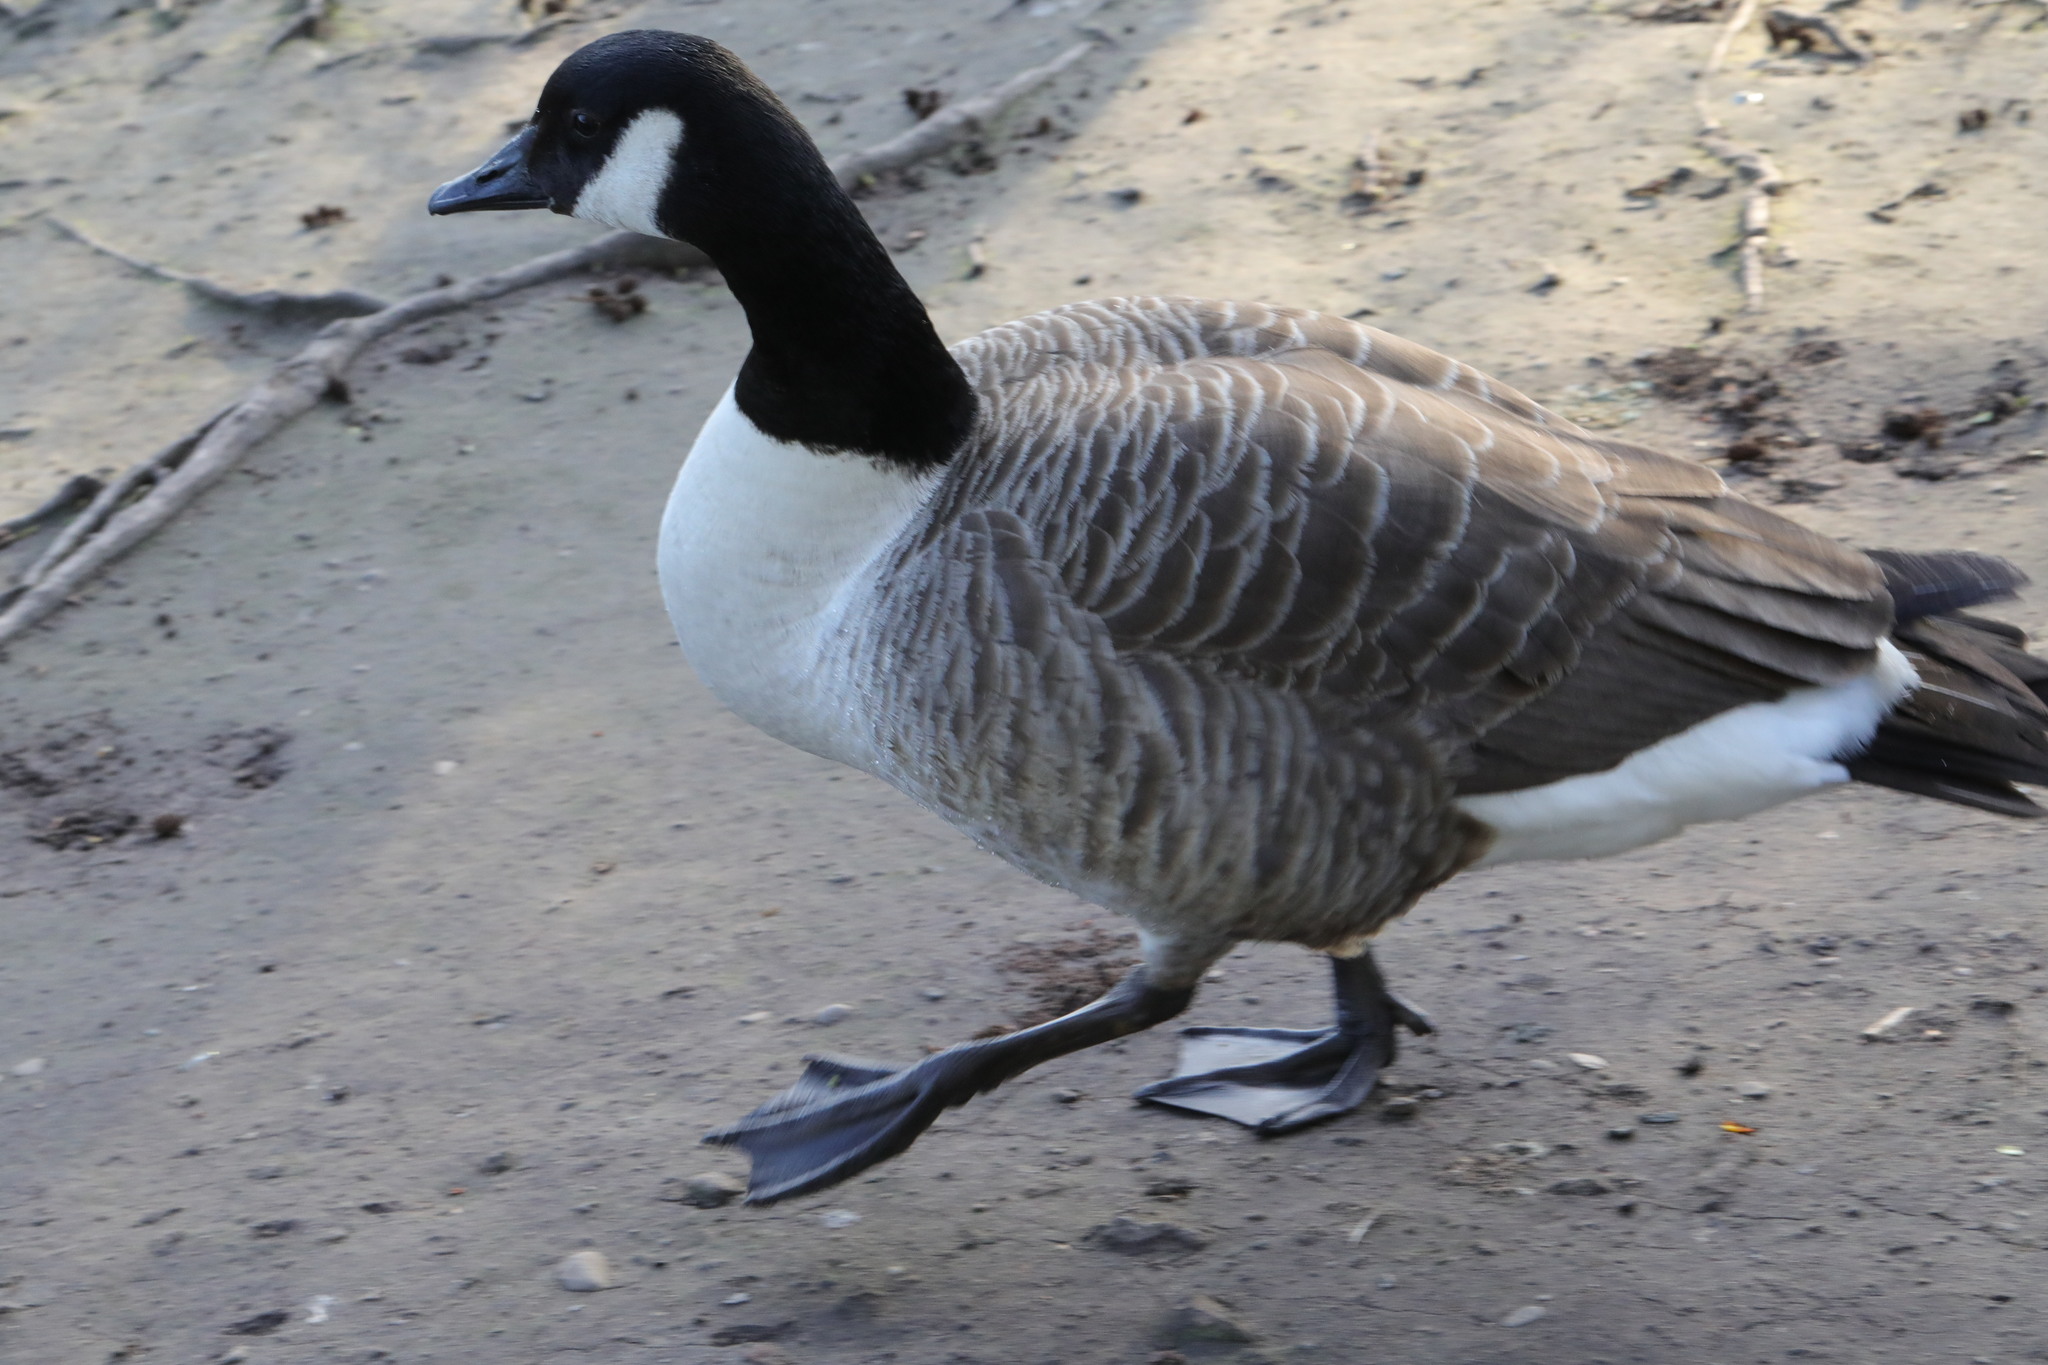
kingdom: Animalia
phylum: Chordata
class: Aves
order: Anseriformes
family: Anatidae
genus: Branta
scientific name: Branta canadensis
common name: Canada goose
